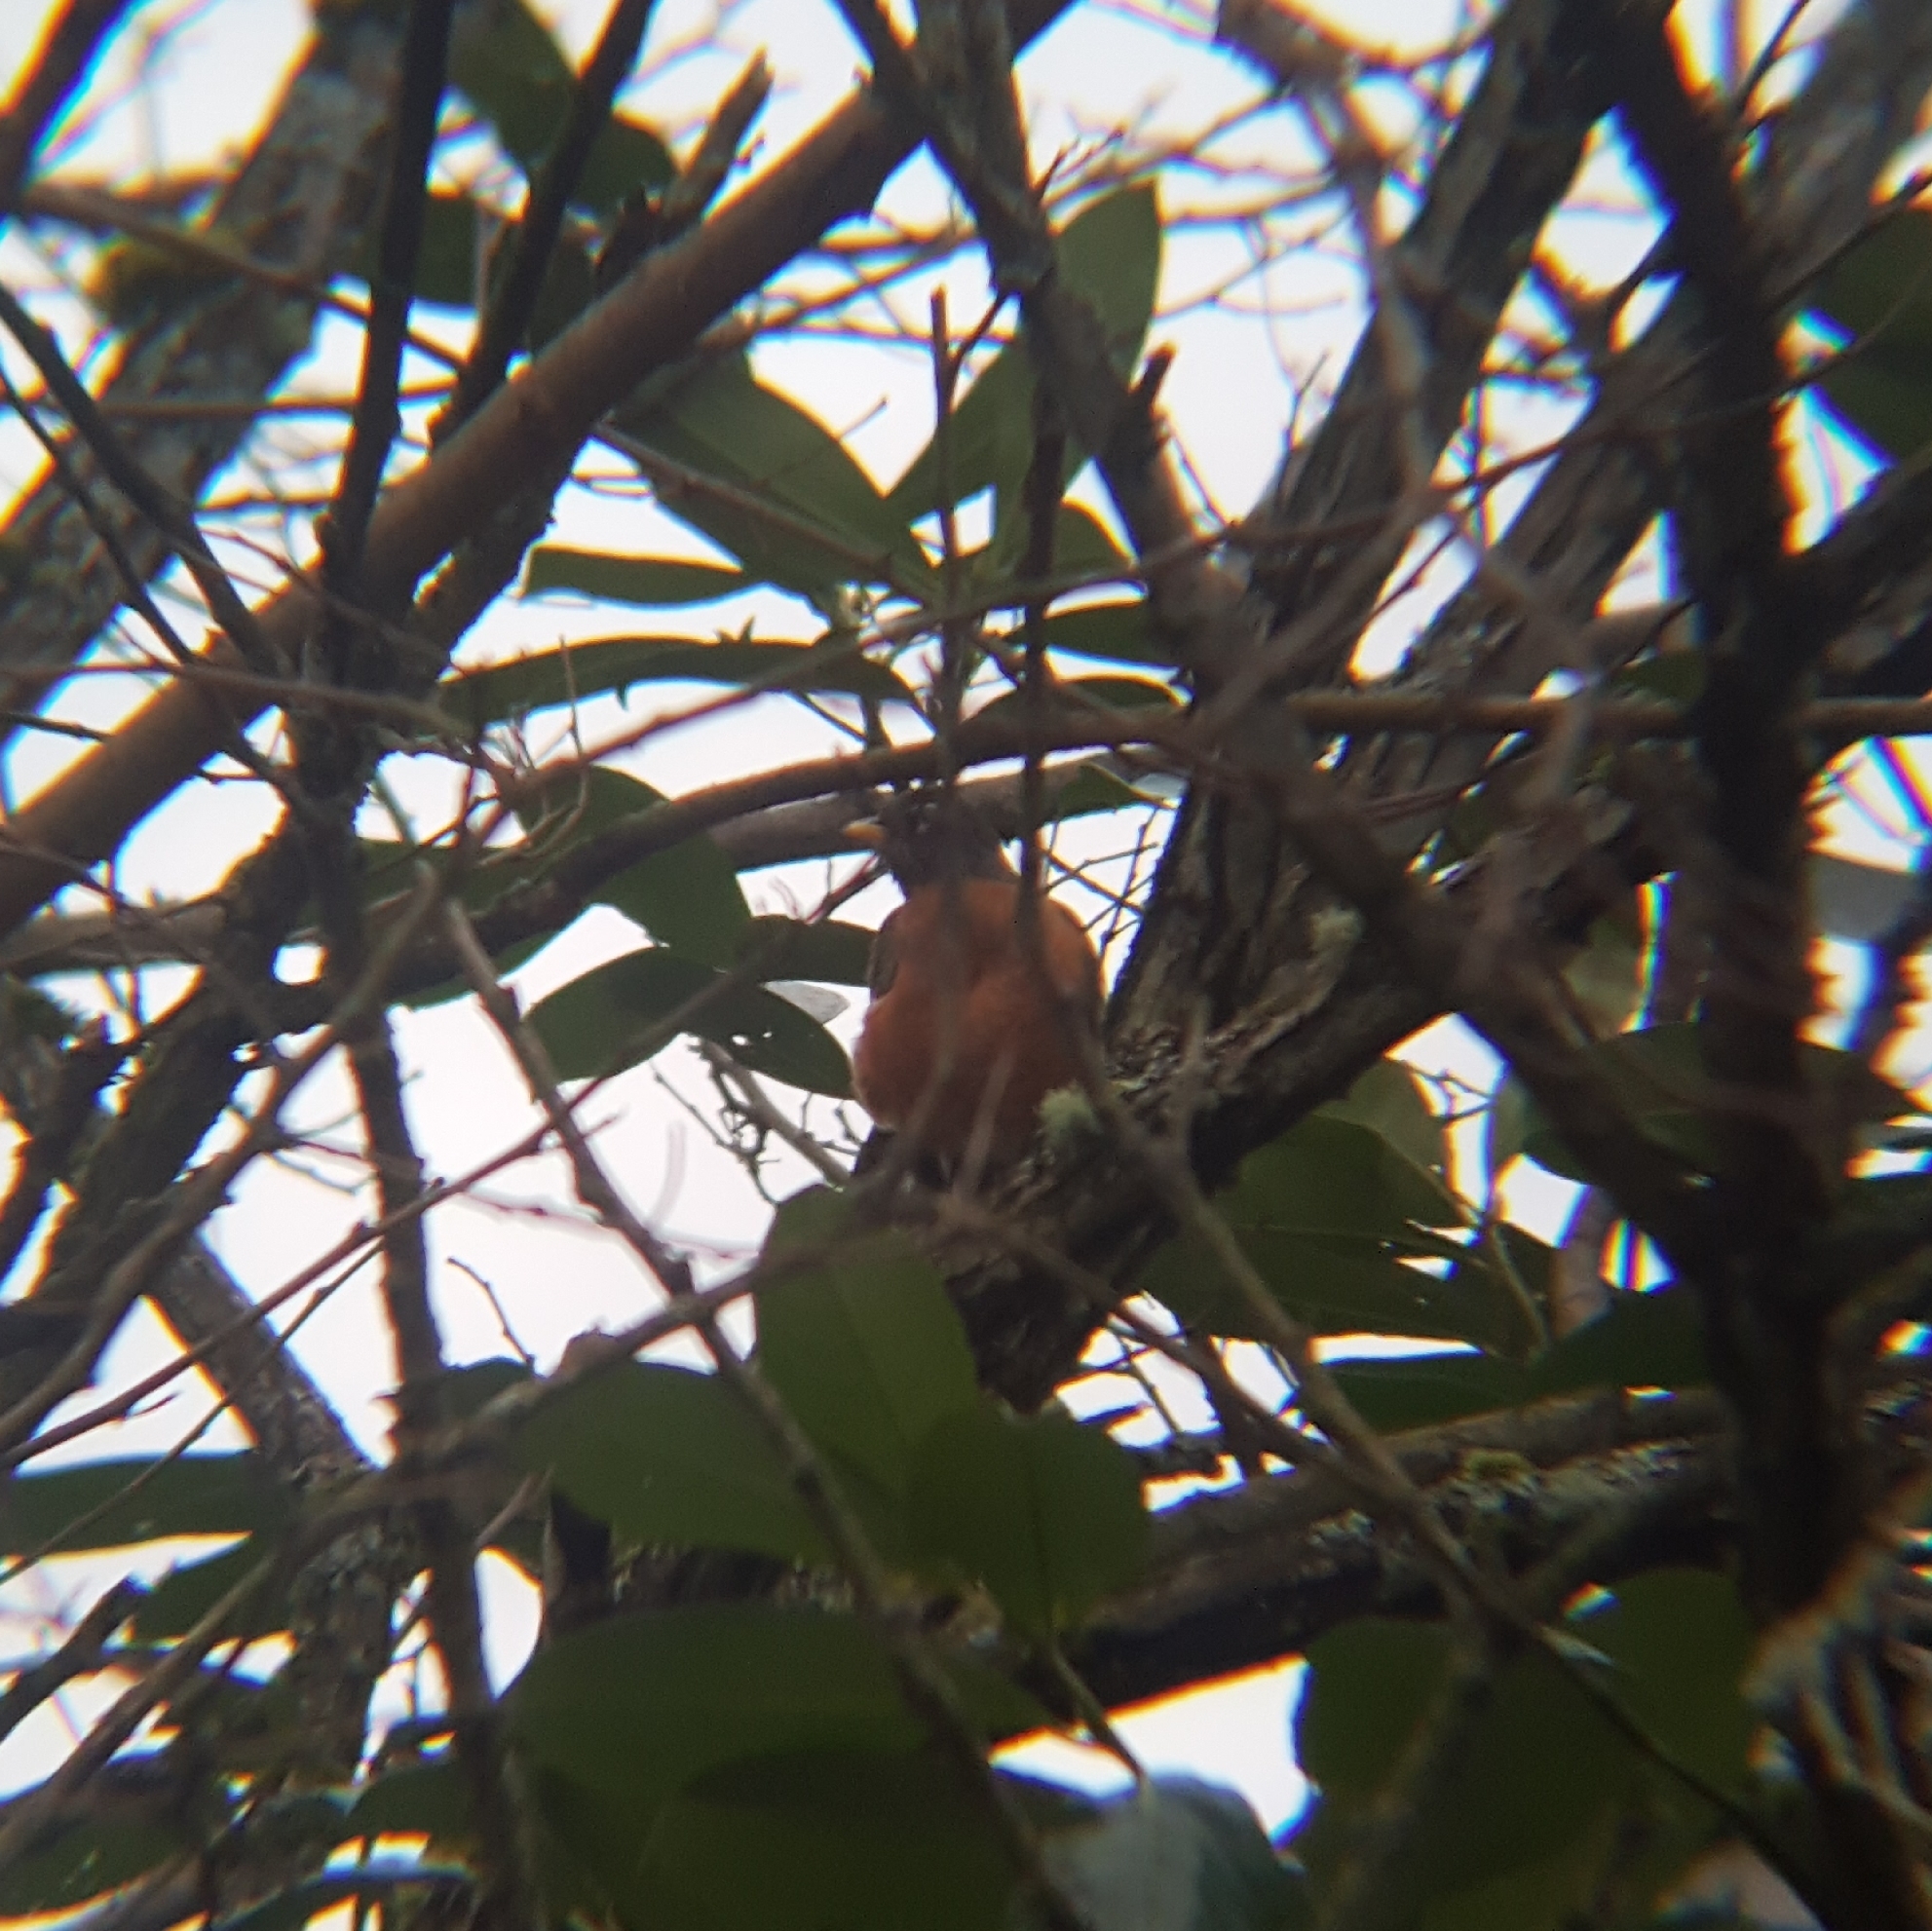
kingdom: Animalia
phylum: Chordata
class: Aves
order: Passeriformes
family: Turdidae
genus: Turdus
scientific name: Turdus migratorius
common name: American robin
